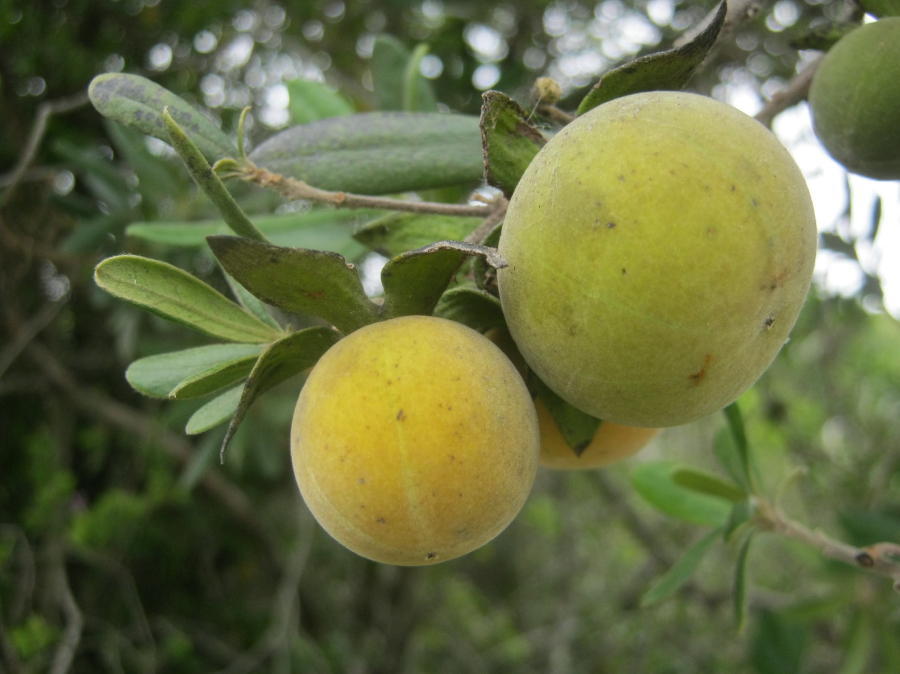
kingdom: Plantae
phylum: Tracheophyta
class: Magnoliopsida
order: Ericales
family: Ebenaceae
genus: Diospyros
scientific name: Diospyros dichrophylla
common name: Common star-apple
